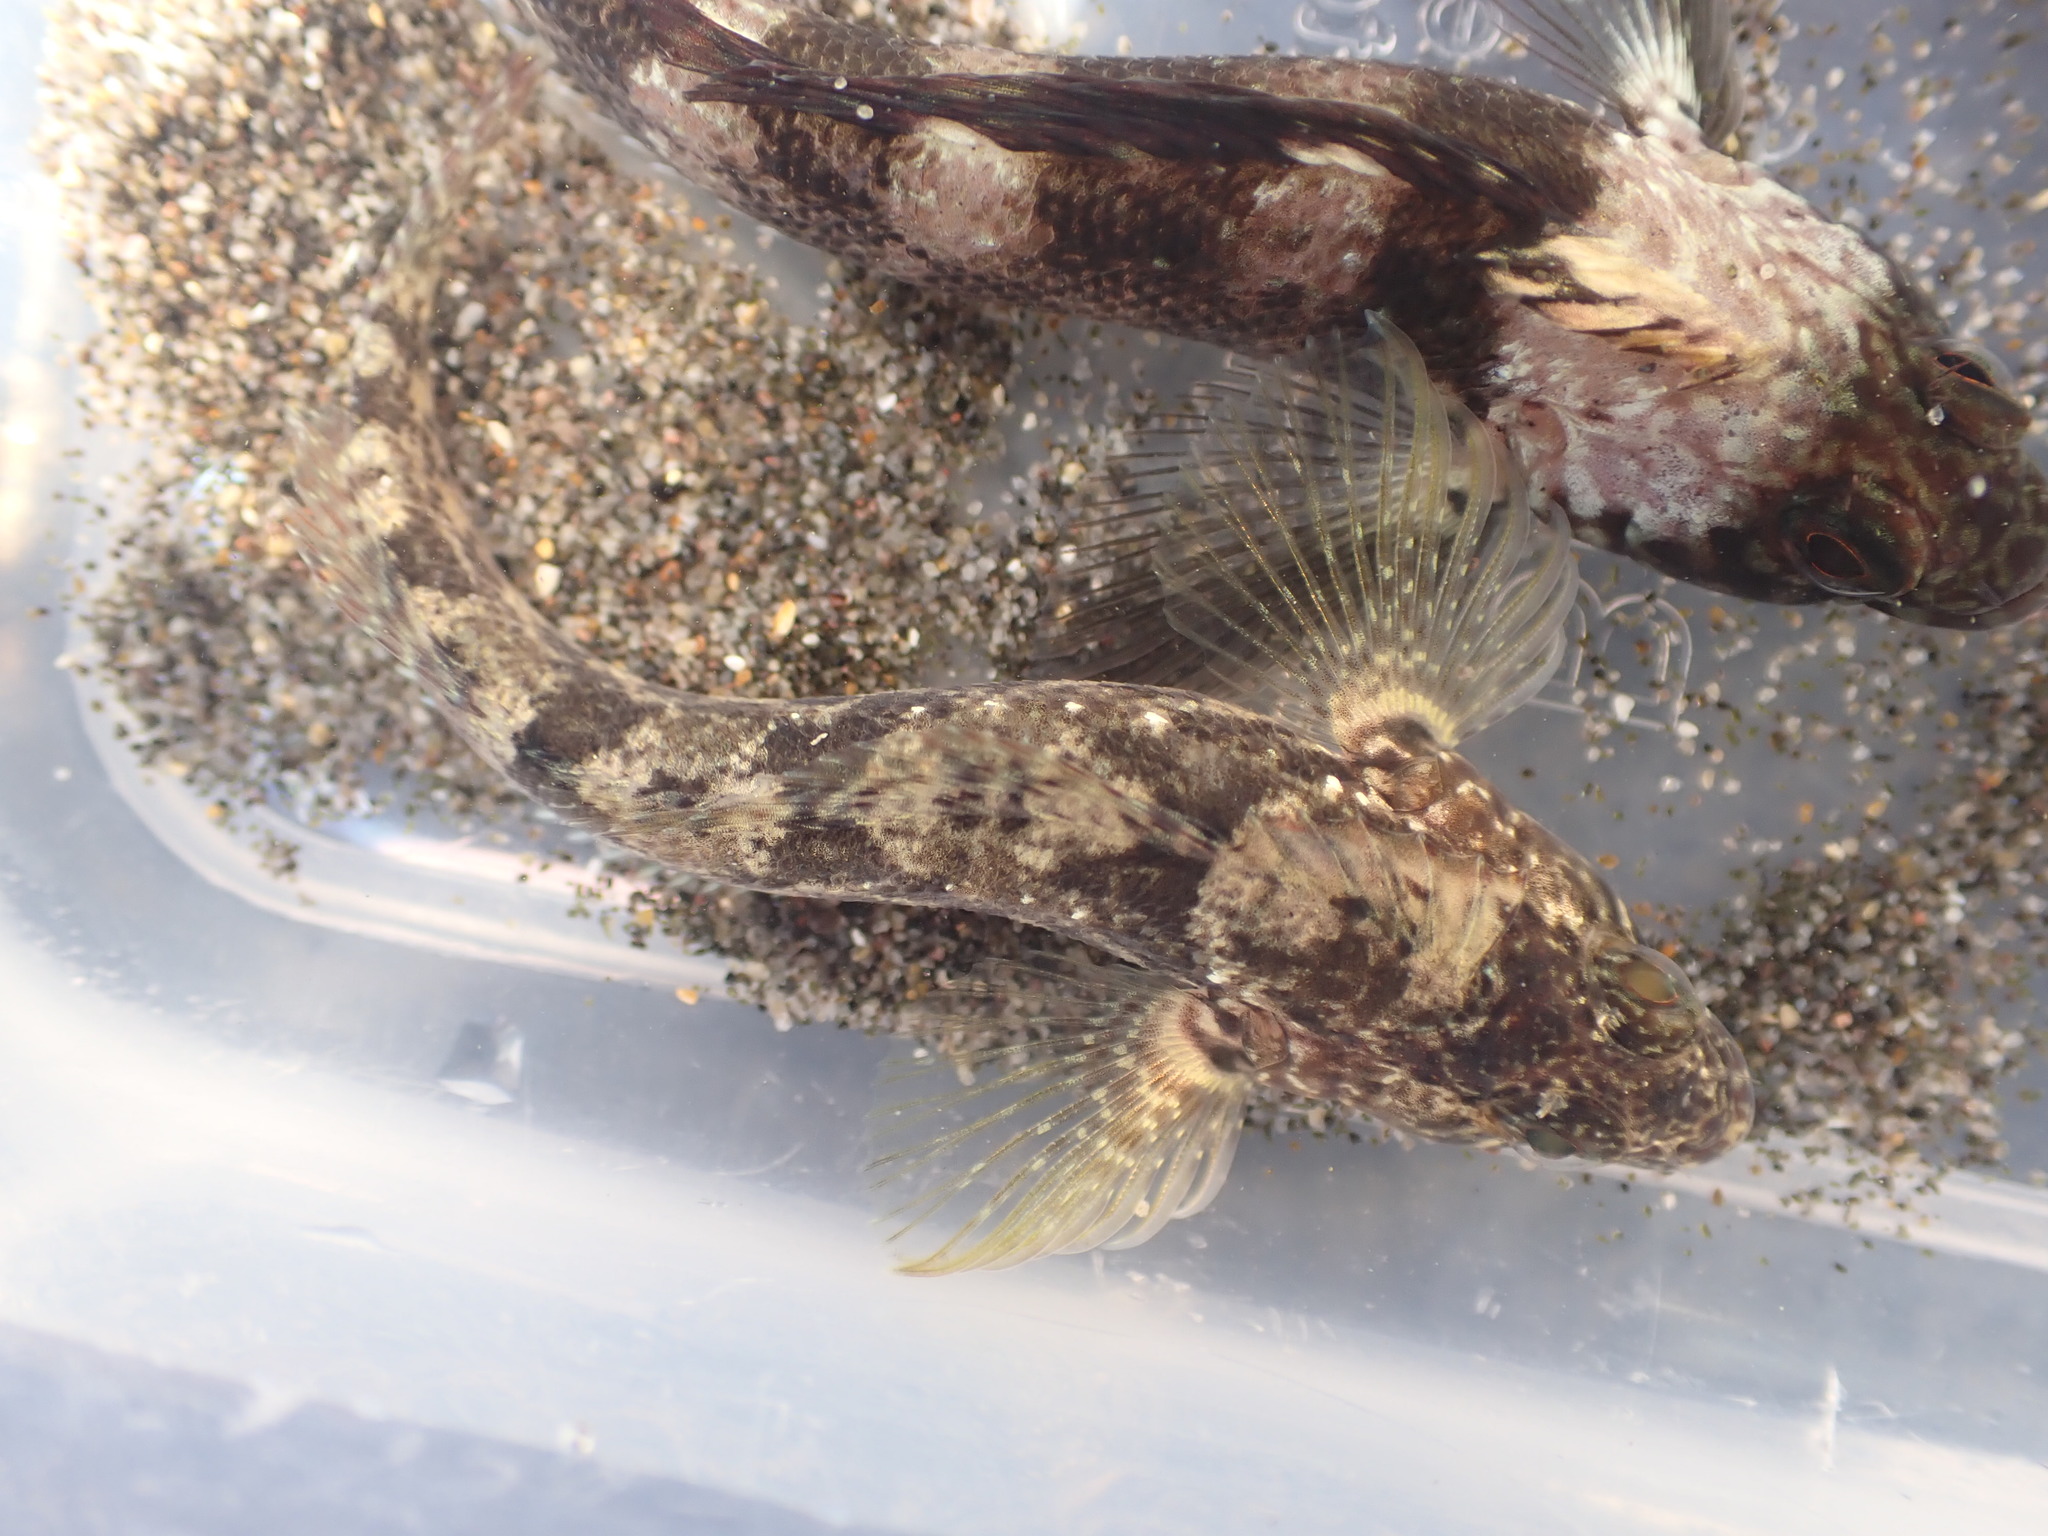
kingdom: Animalia
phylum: Chordata
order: Perciformes
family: Tripterygiidae
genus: Forsterygion
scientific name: Forsterygion gymnotum
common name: Multifid-tentacled robust triplefin
